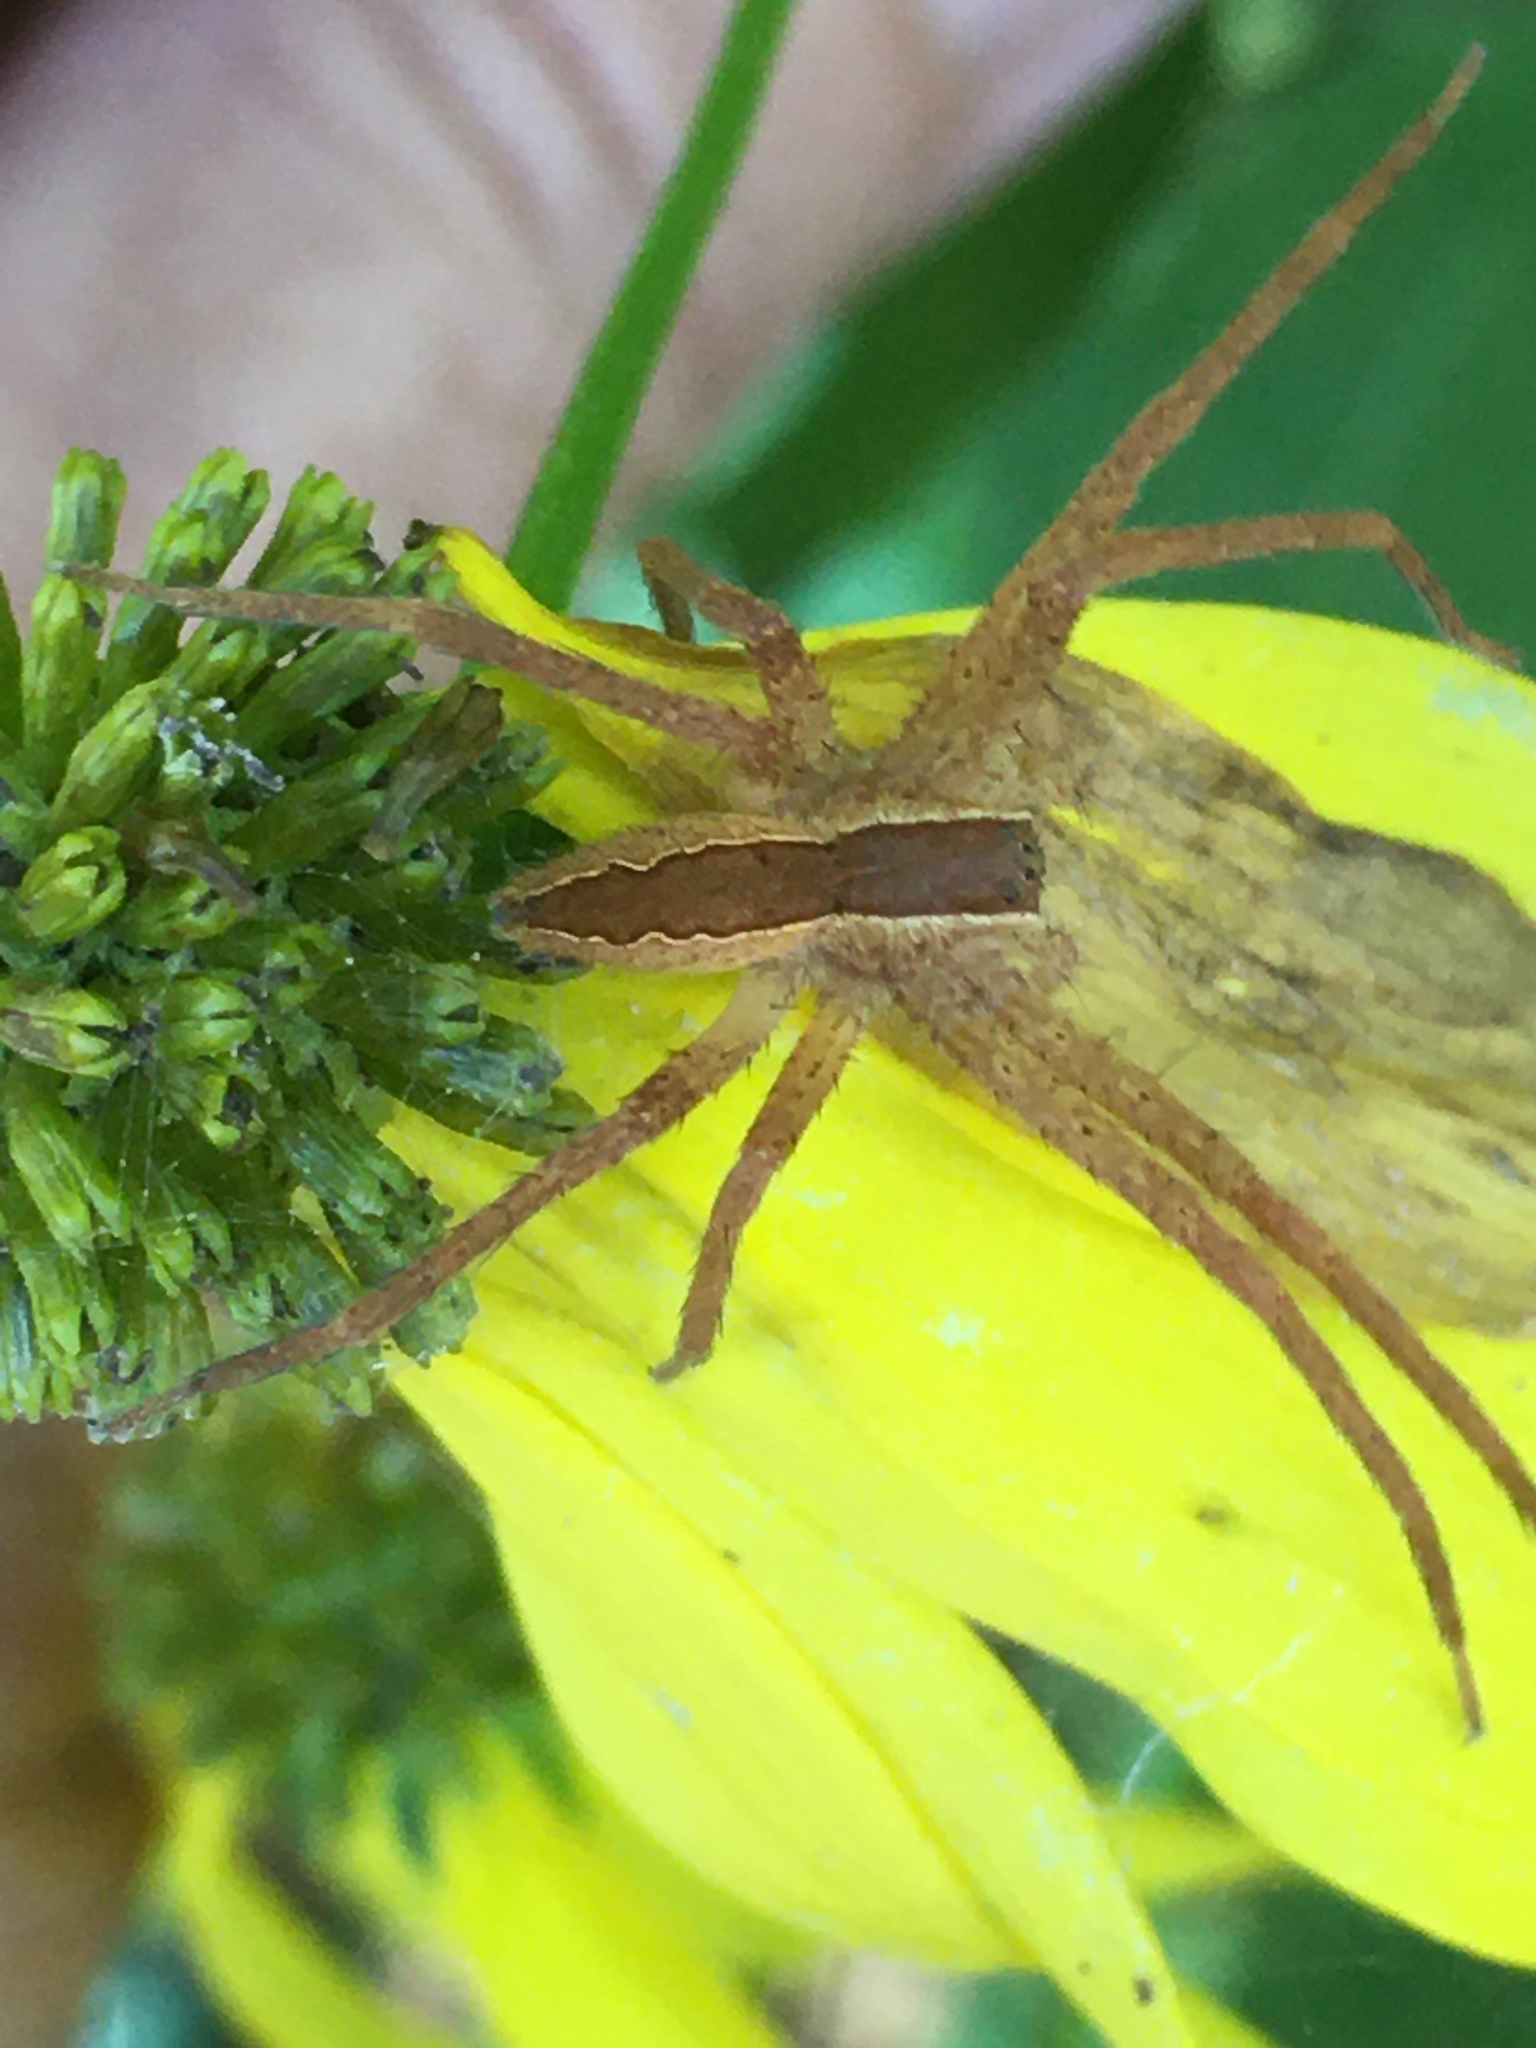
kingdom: Animalia
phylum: Arthropoda
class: Arachnida
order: Araneae
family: Pisauridae
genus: Pisaurina
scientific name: Pisaurina mira
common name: American nursery web spider
